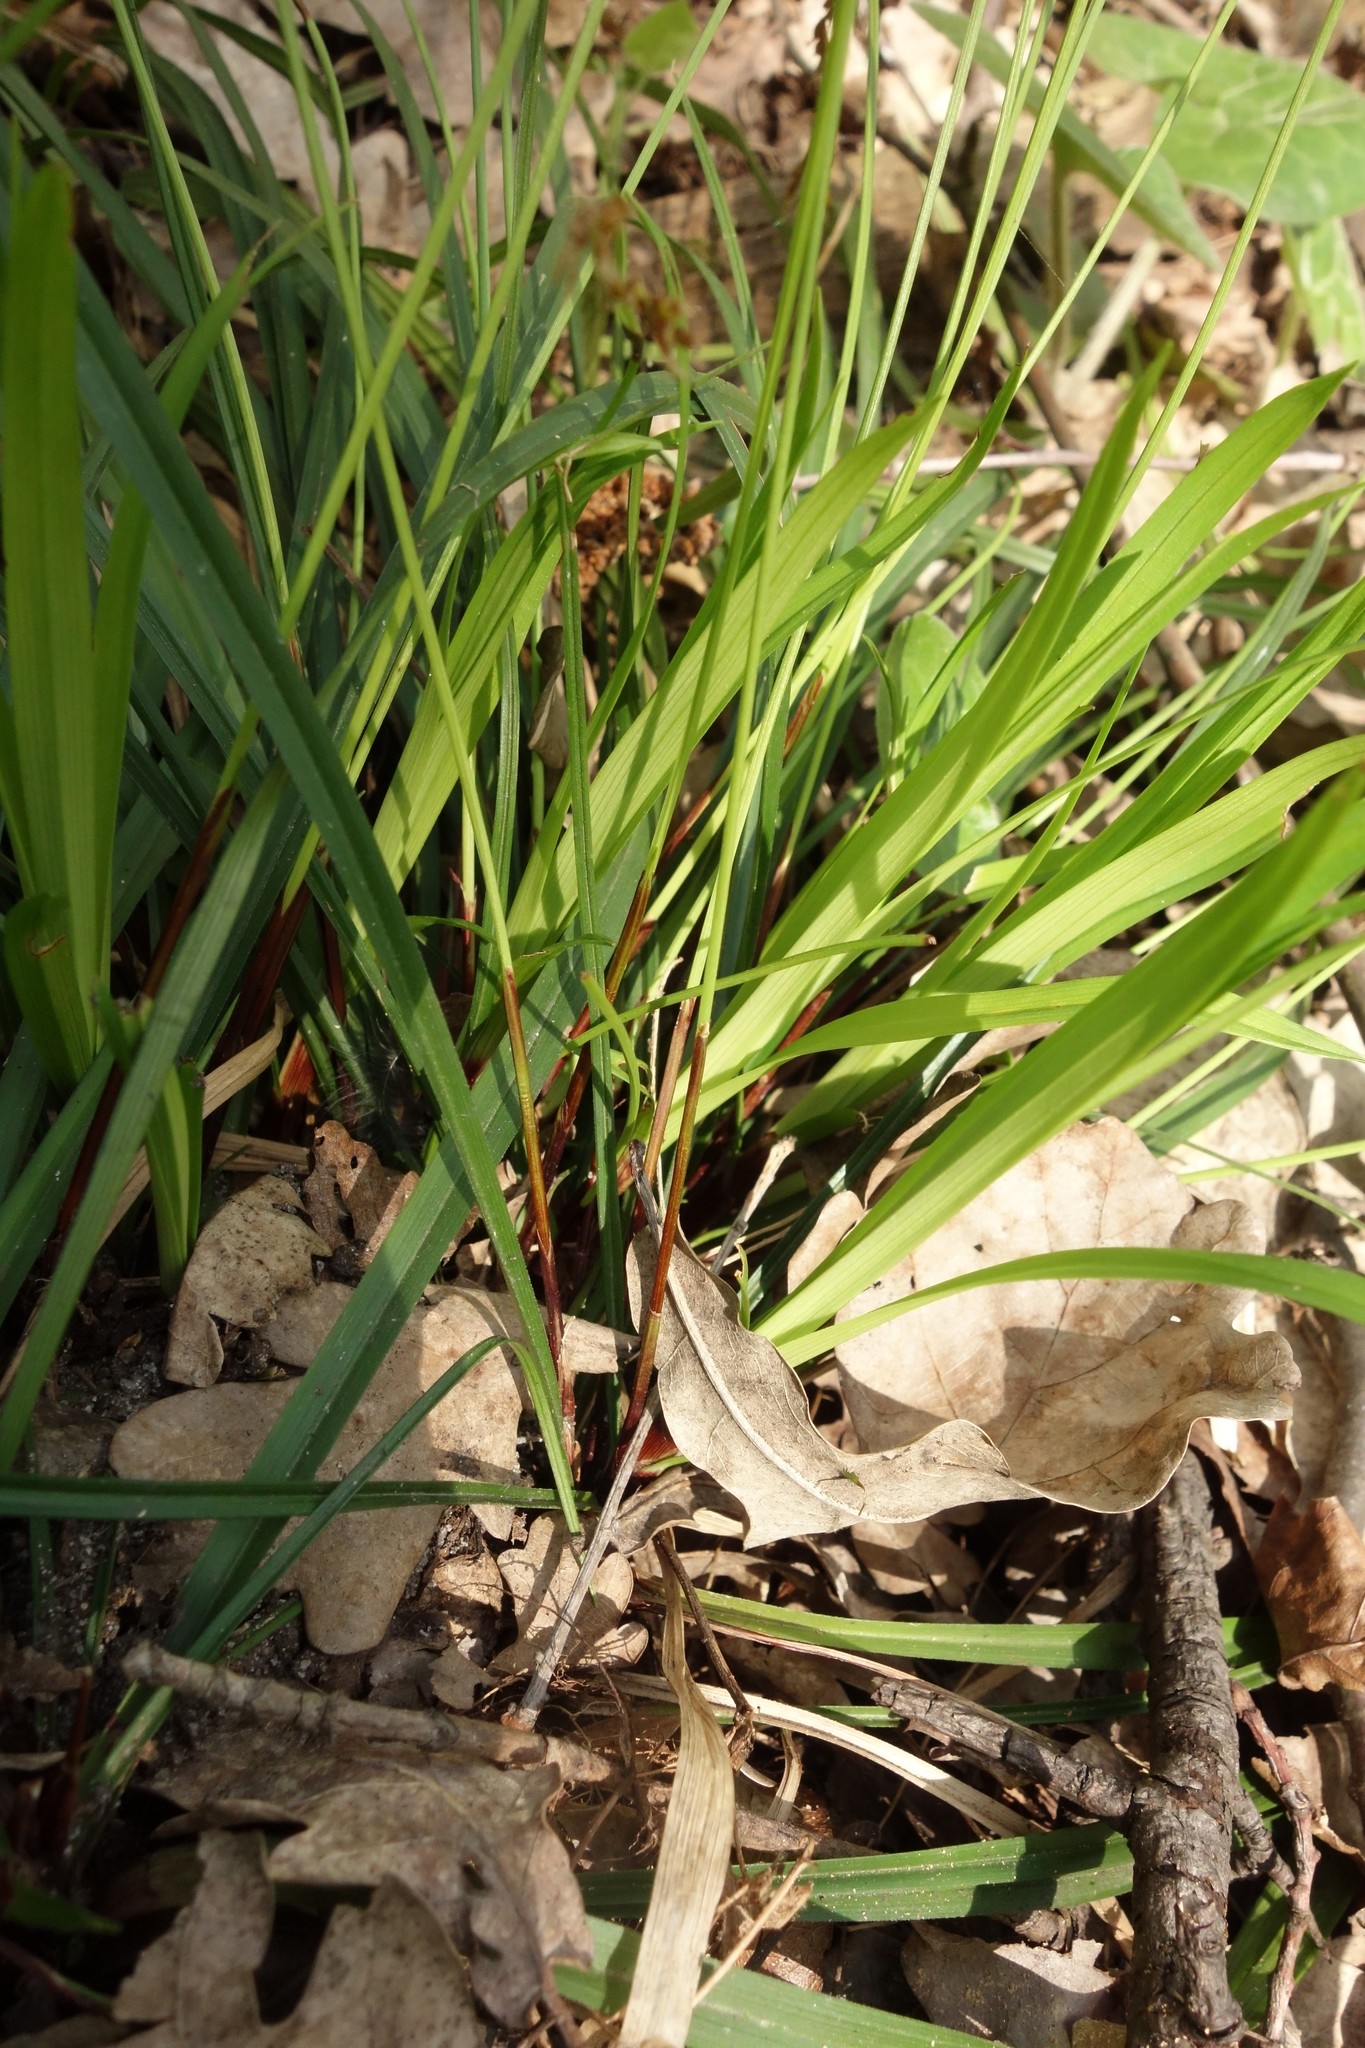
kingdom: Plantae
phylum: Tracheophyta
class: Liliopsida
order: Poales
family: Cyperaceae
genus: Carex
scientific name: Carex digitata
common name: Fingered sedge
